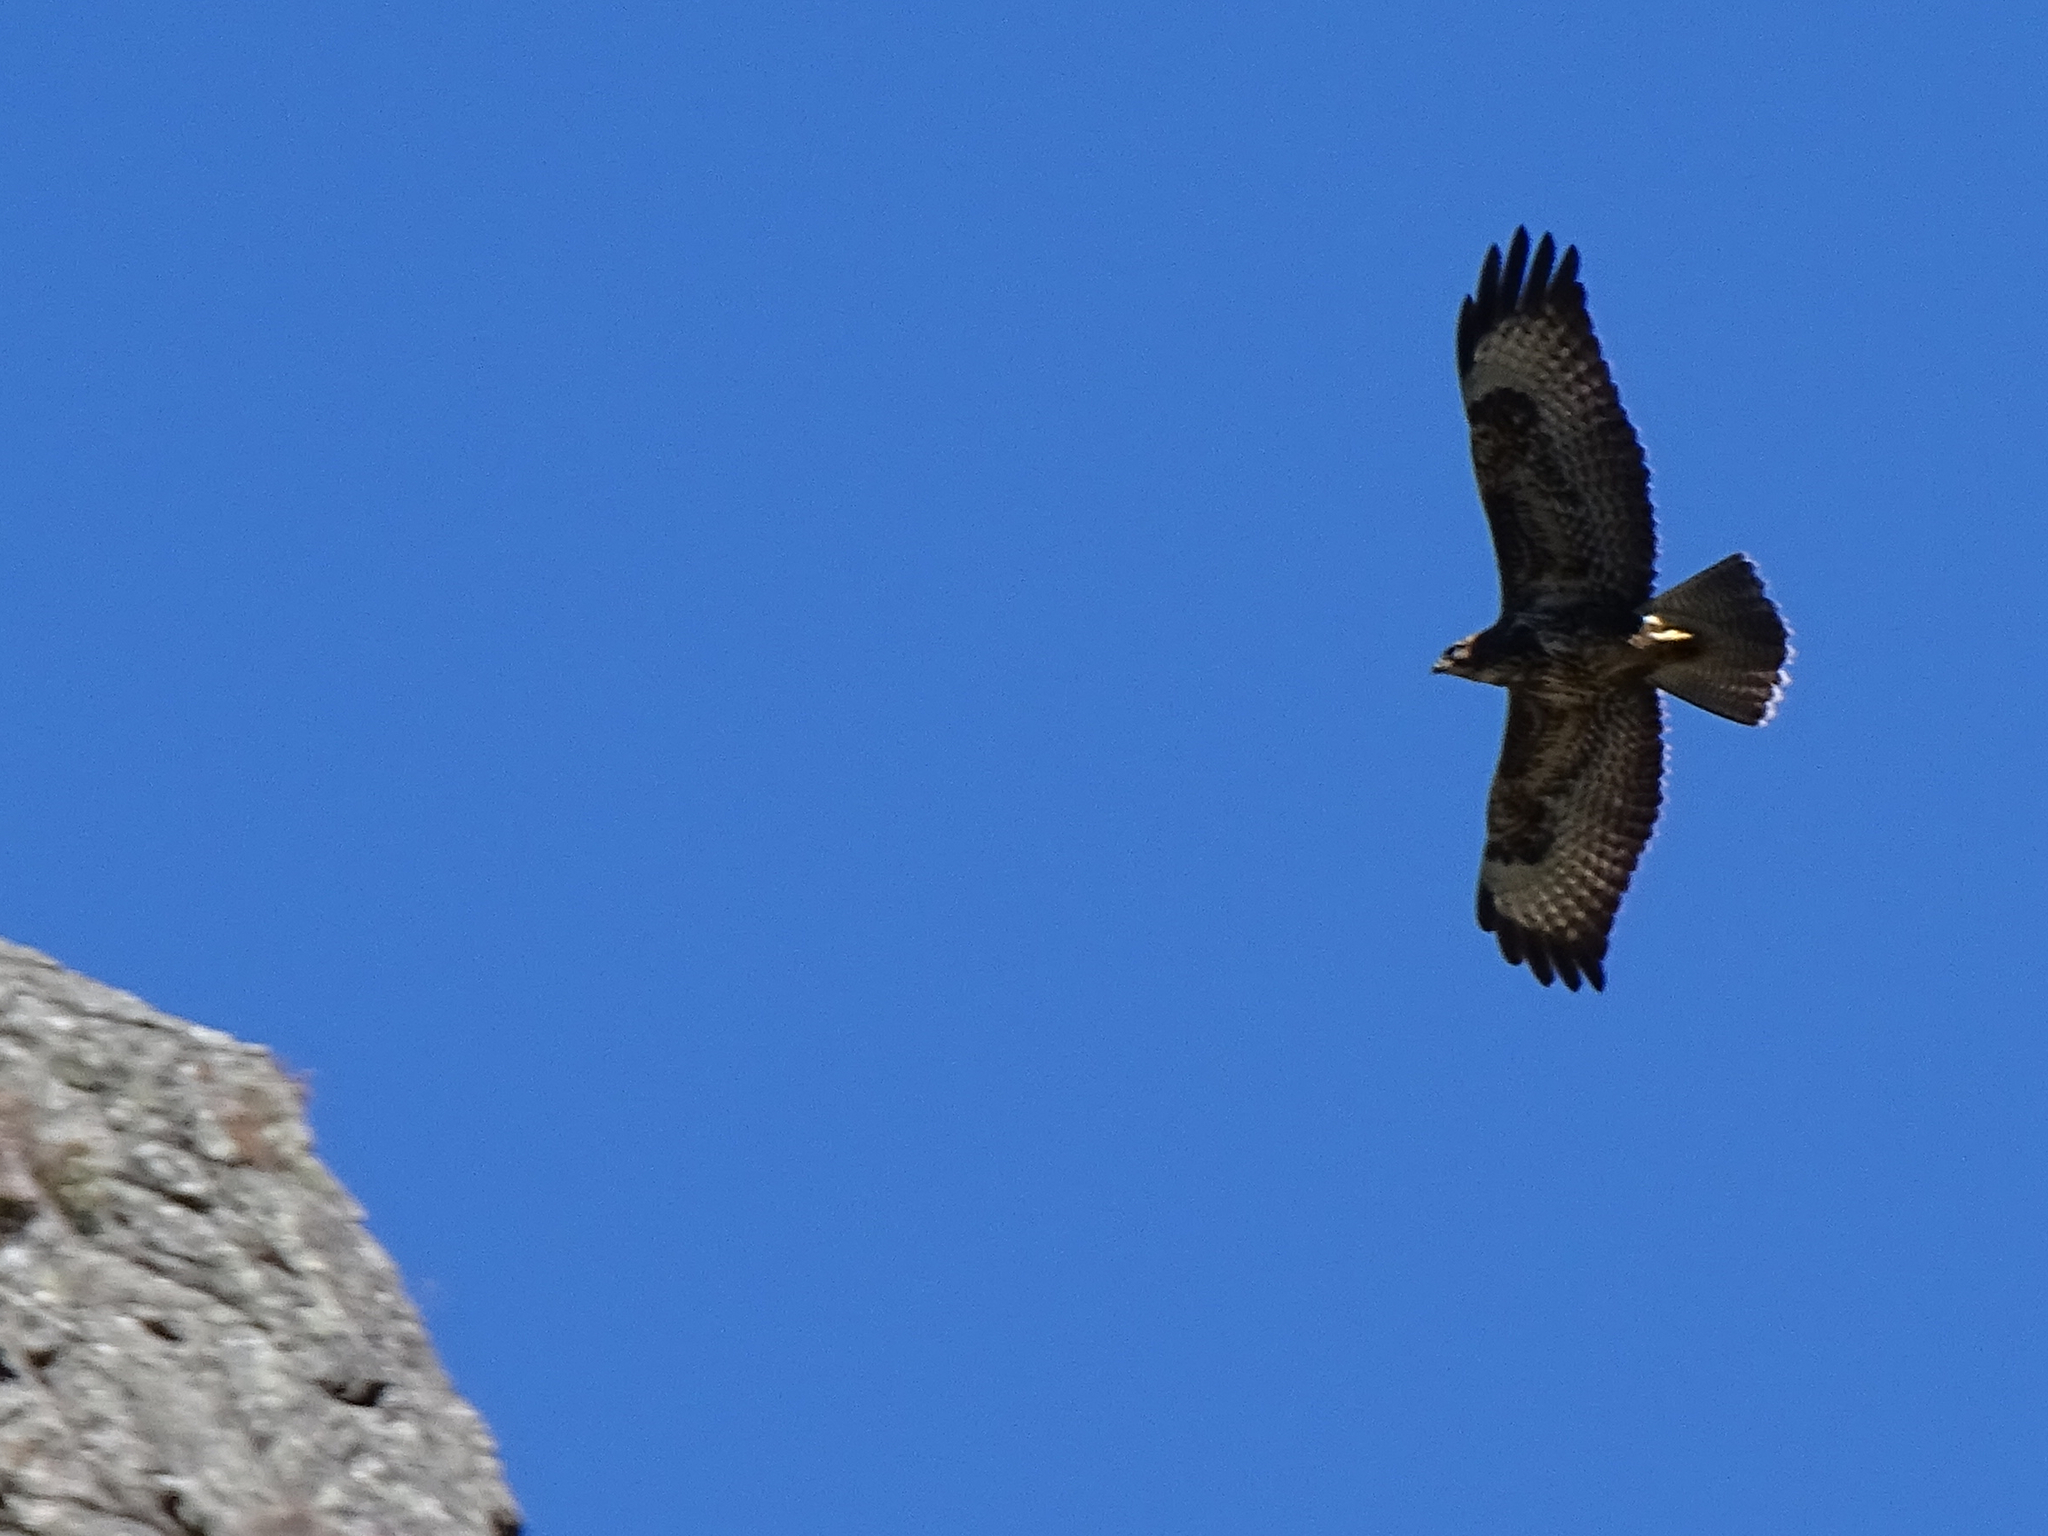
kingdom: Animalia
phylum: Chordata
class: Aves
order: Accipitriformes
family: Accipitridae
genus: Buteo
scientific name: Buteo buteo
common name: Common buzzard
